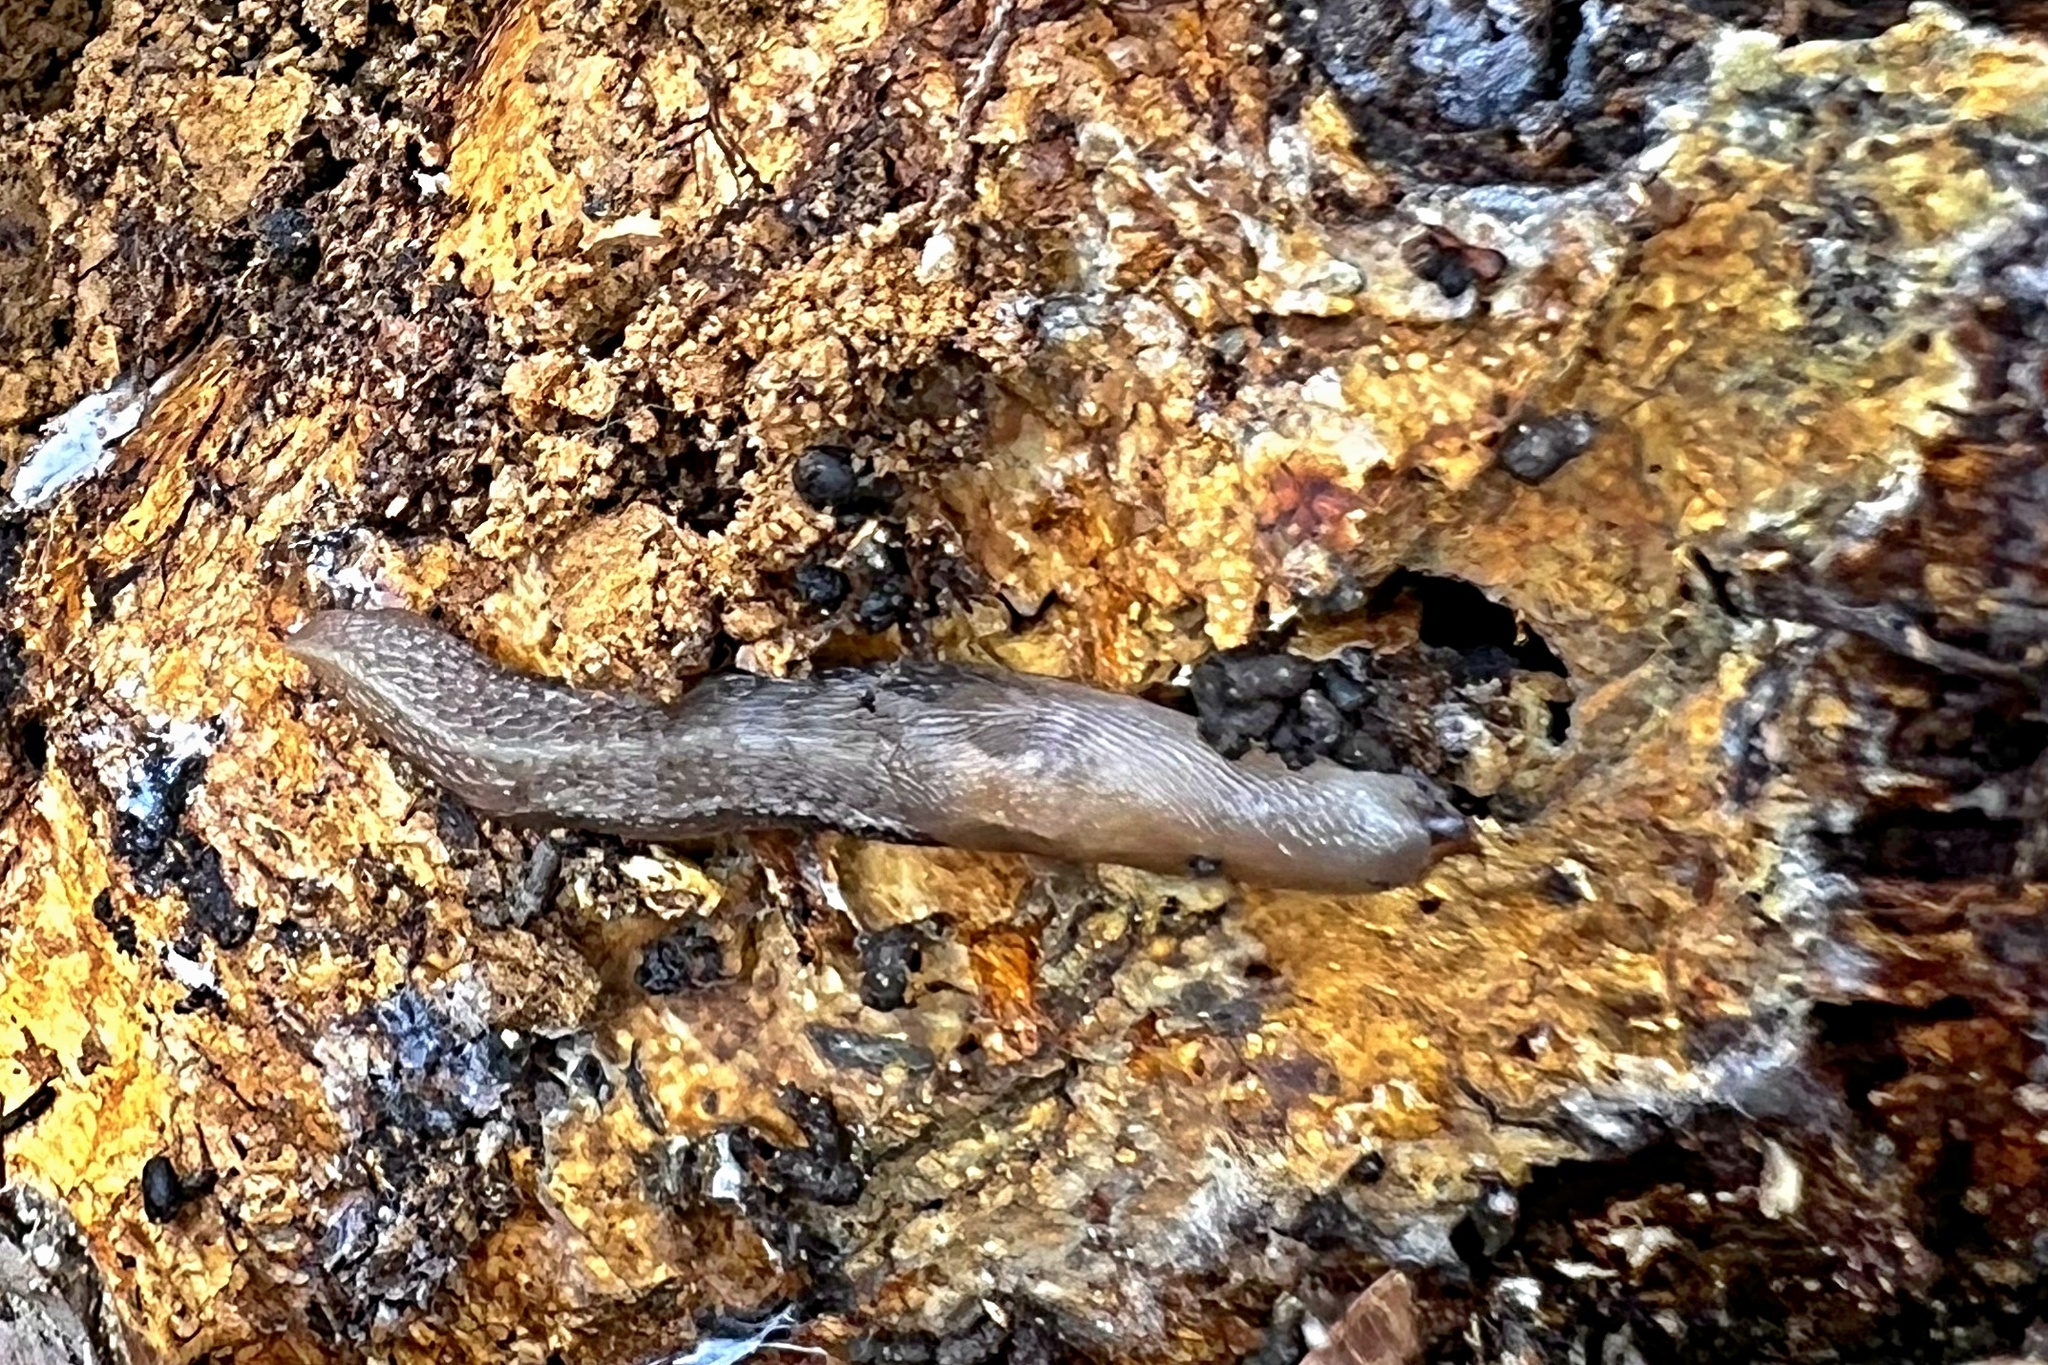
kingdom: Animalia
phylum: Mollusca
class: Gastropoda
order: Stylommatophora
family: Limacidae
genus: Limax
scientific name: Limax cinereoniger
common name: Ash-black slug
